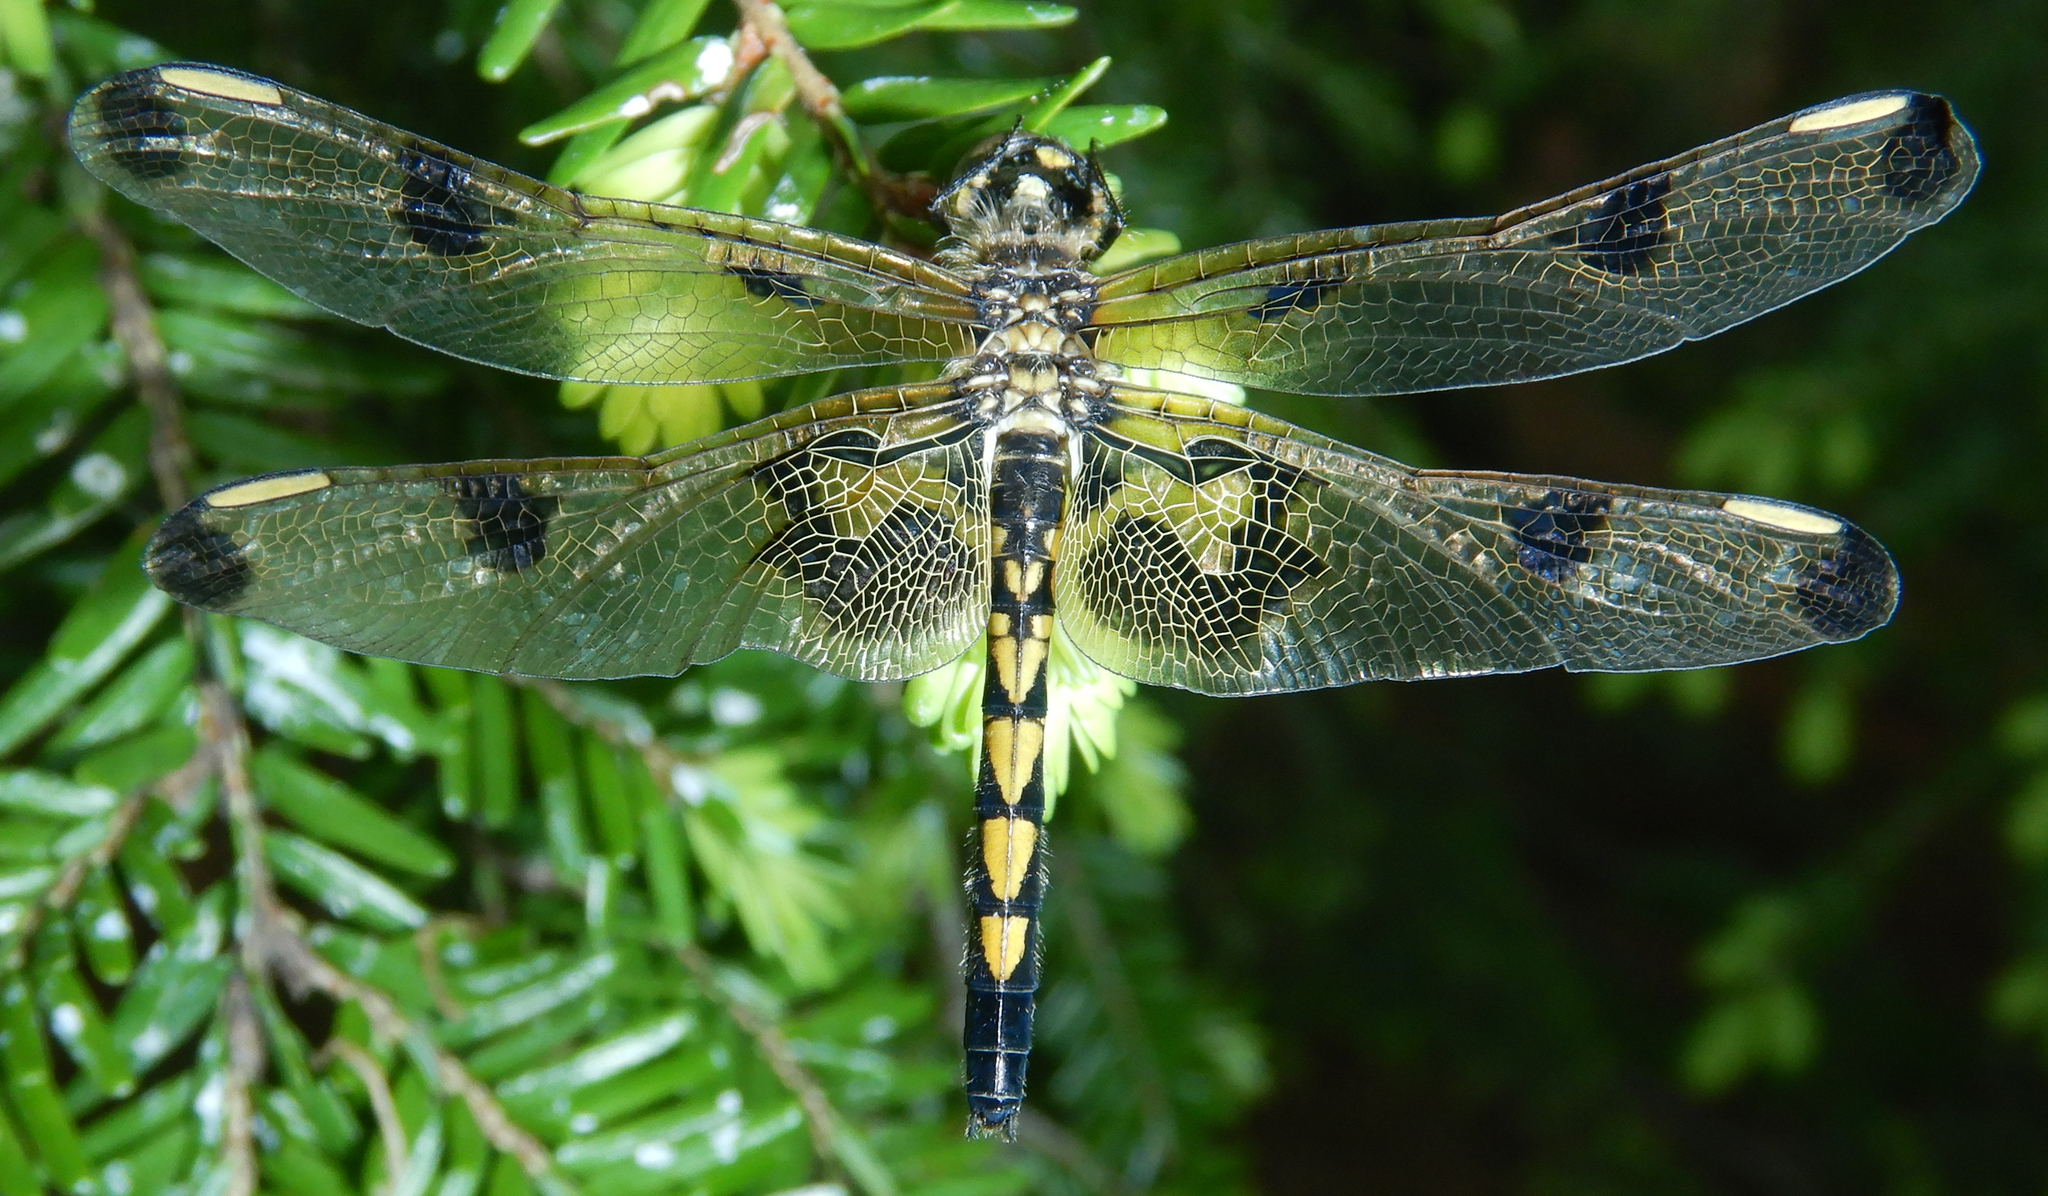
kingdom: Animalia
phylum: Arthropoda
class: Insecta
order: Odonata
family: Libellulidae
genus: Celithemis
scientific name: Celithemis elisa
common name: Calico pennant
